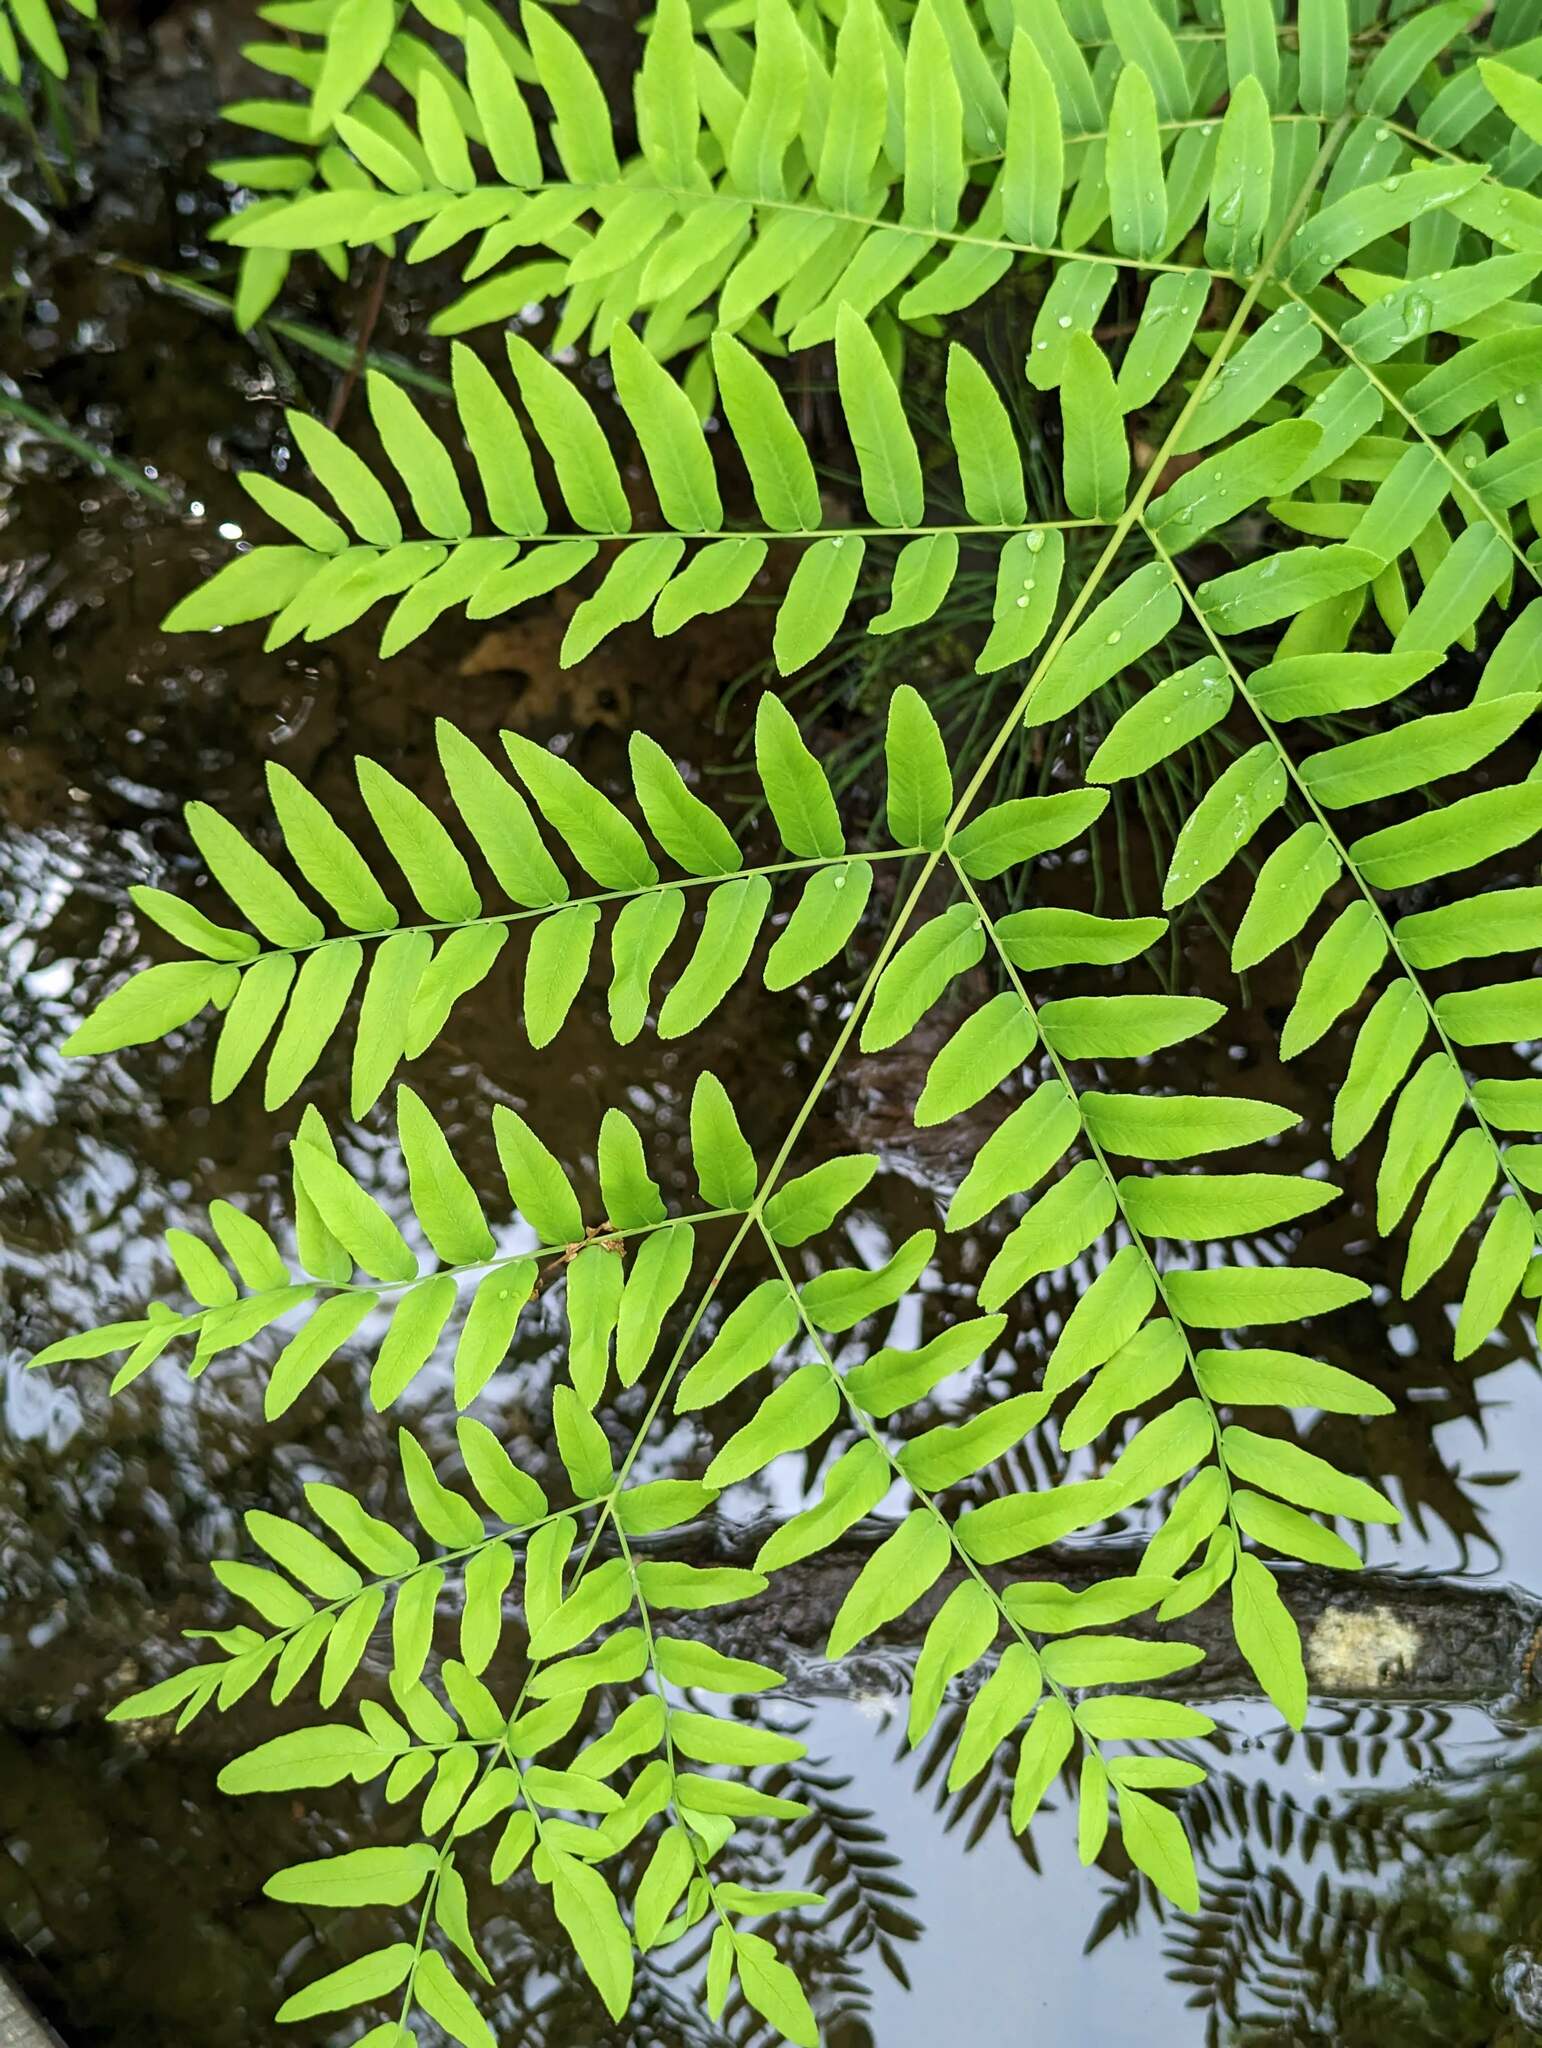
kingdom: Plantae
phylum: Tracheophyta
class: Polypodiopsida
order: Osmundales
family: Osmundaceae
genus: Osmunda
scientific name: Osmunda spectabilis
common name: American royal fern
